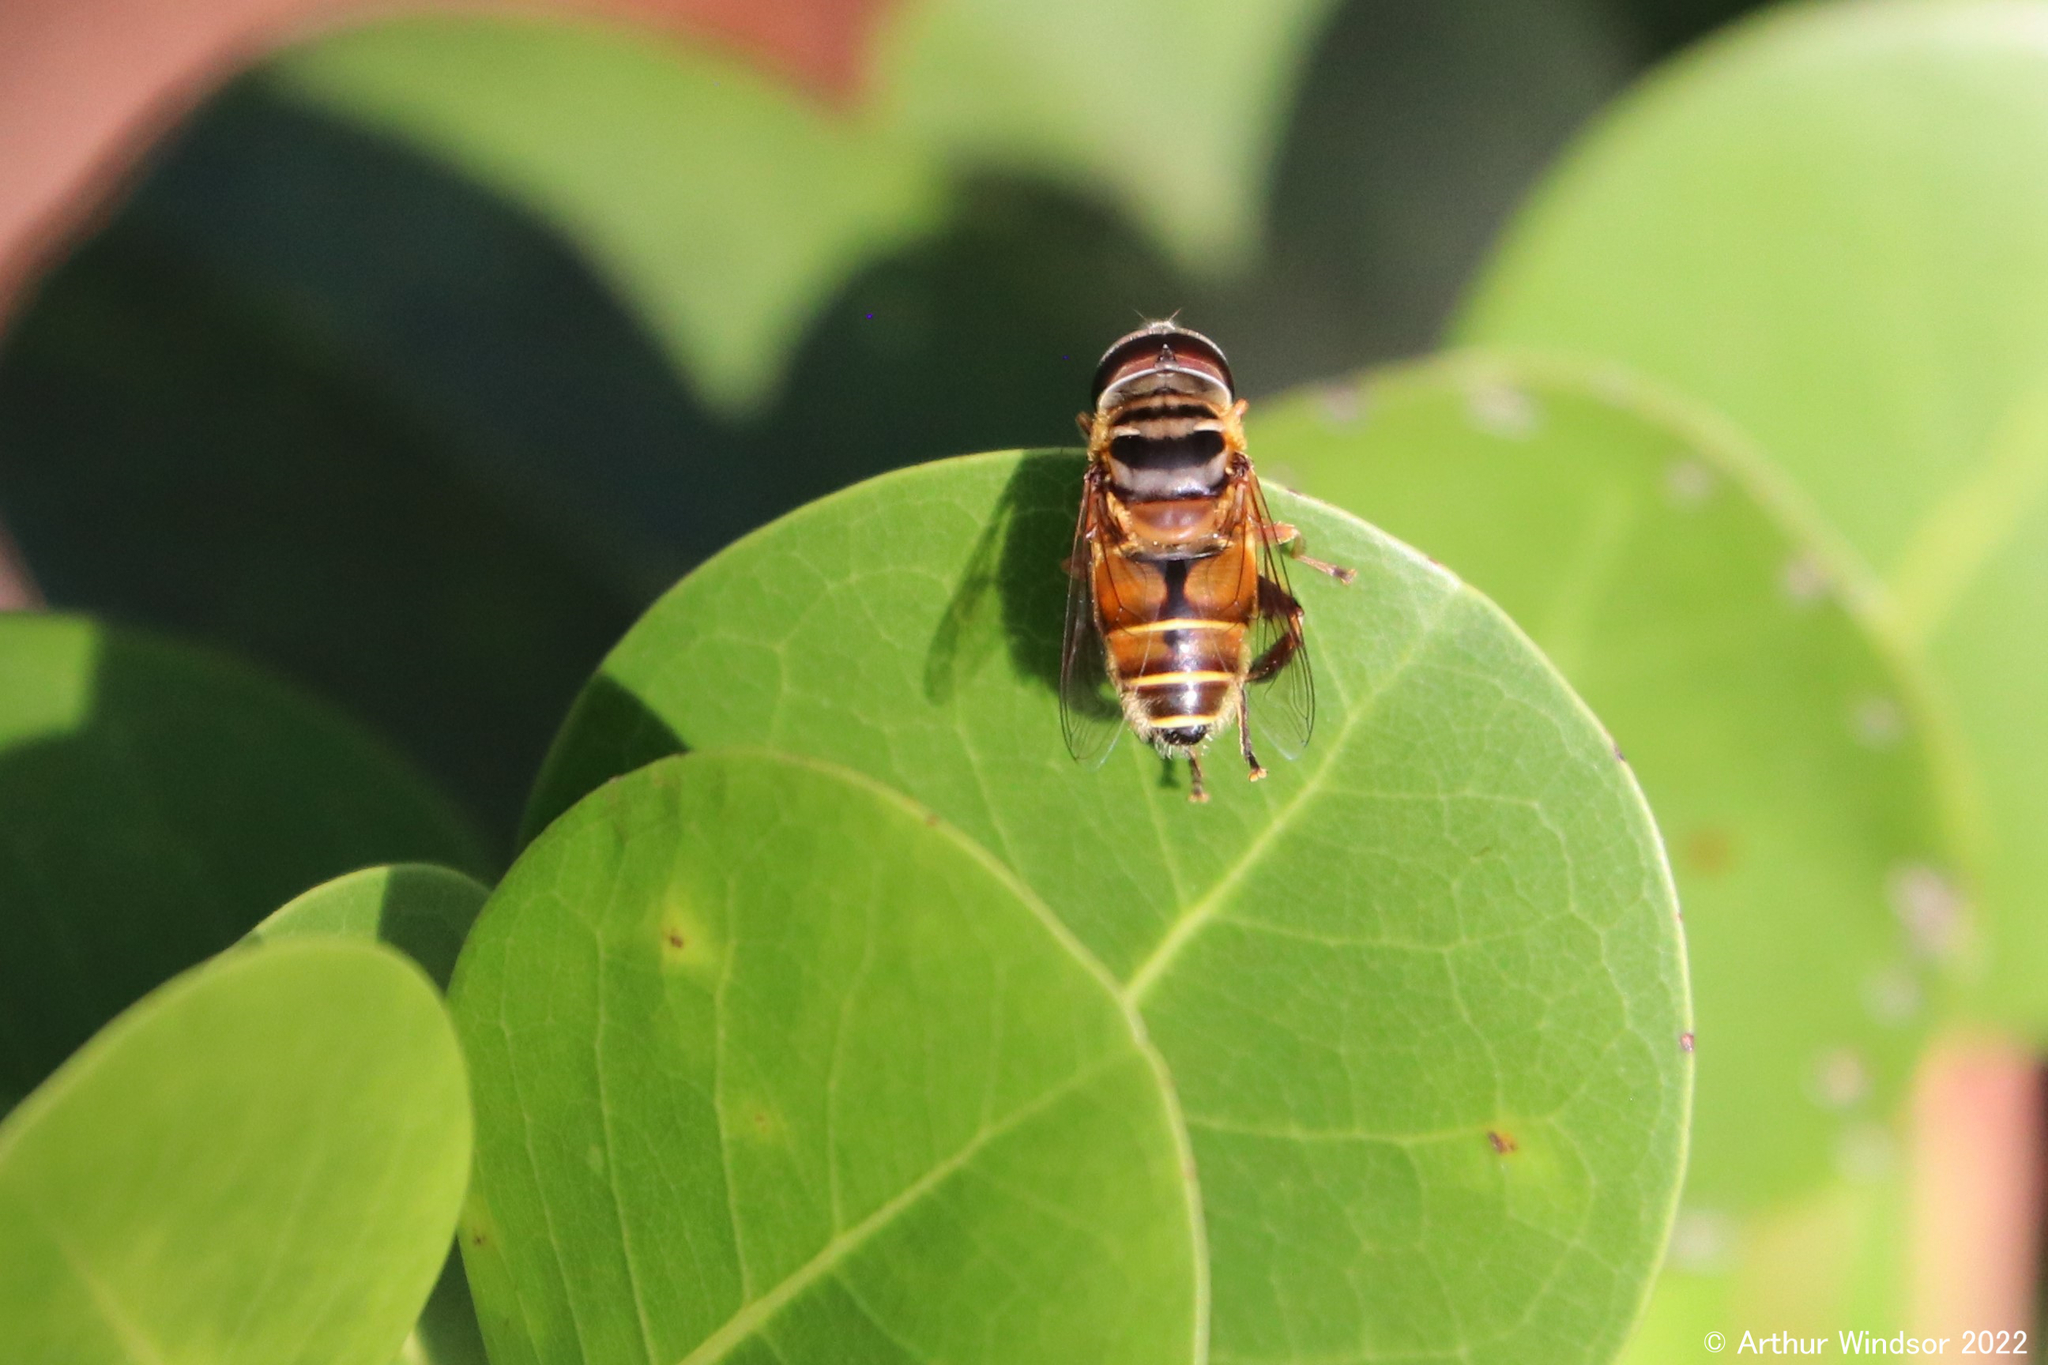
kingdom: Animalia
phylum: Arthropoda
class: Insecta
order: Diptera
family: Syrphidae
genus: Palpada
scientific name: Palpada vinetorum
